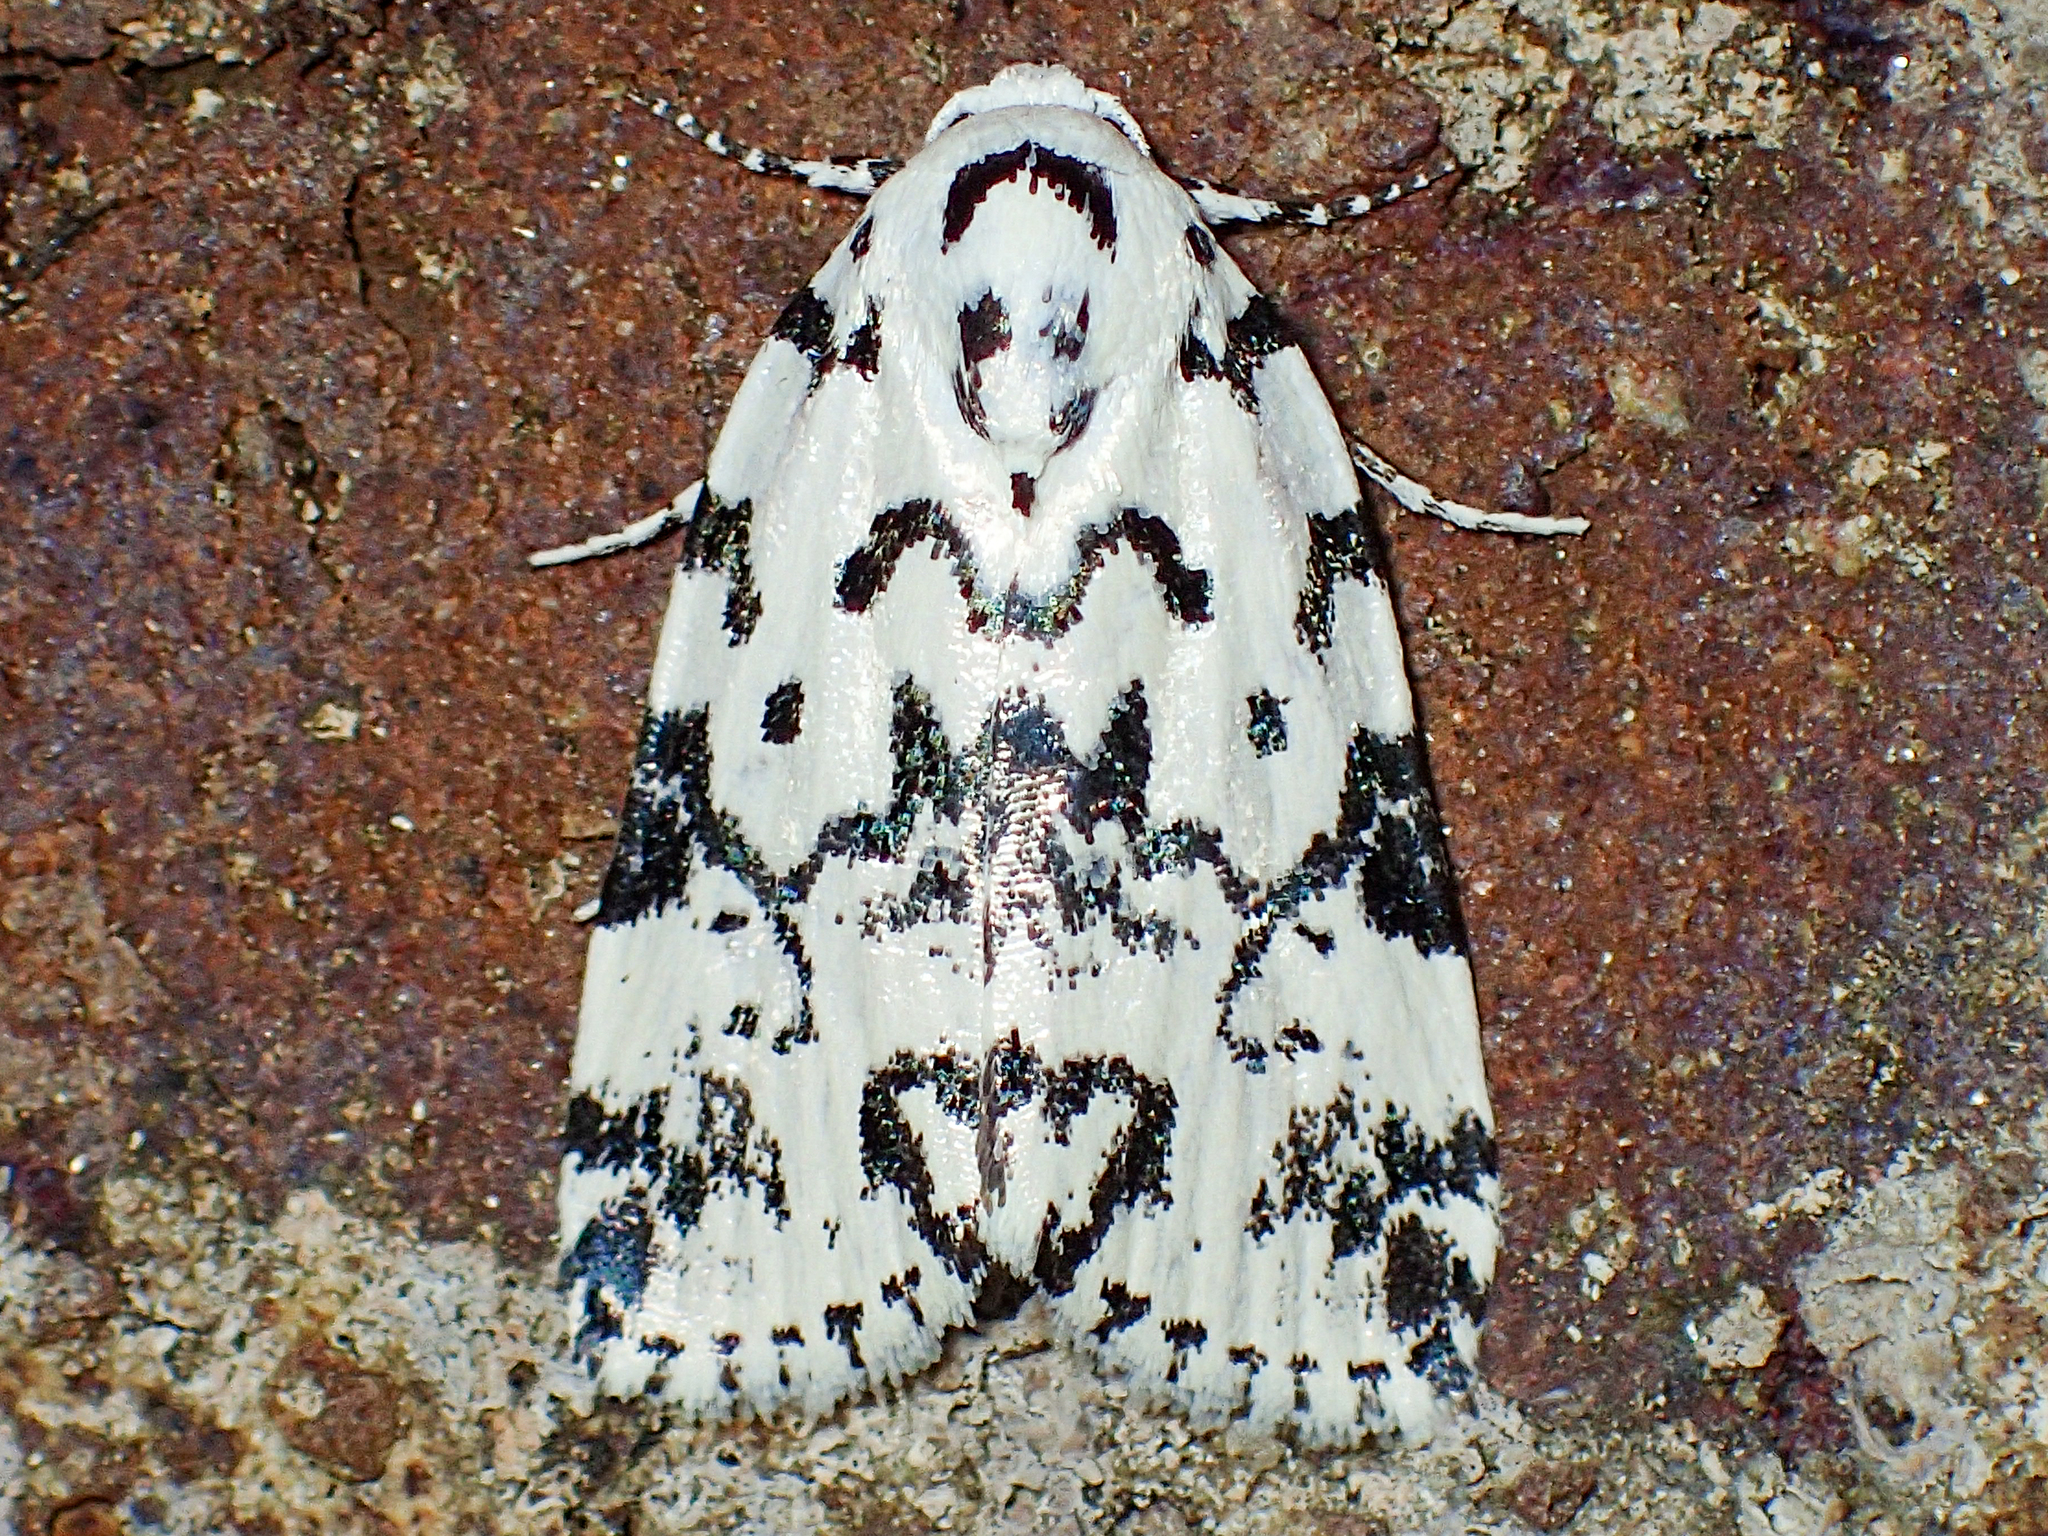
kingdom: Animalia
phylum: Arthropoda
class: Insecta
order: Lepidoptera
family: Noctuidae
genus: Polygrammate
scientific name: Polygrammate hebraeicum
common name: Hebrew moth
